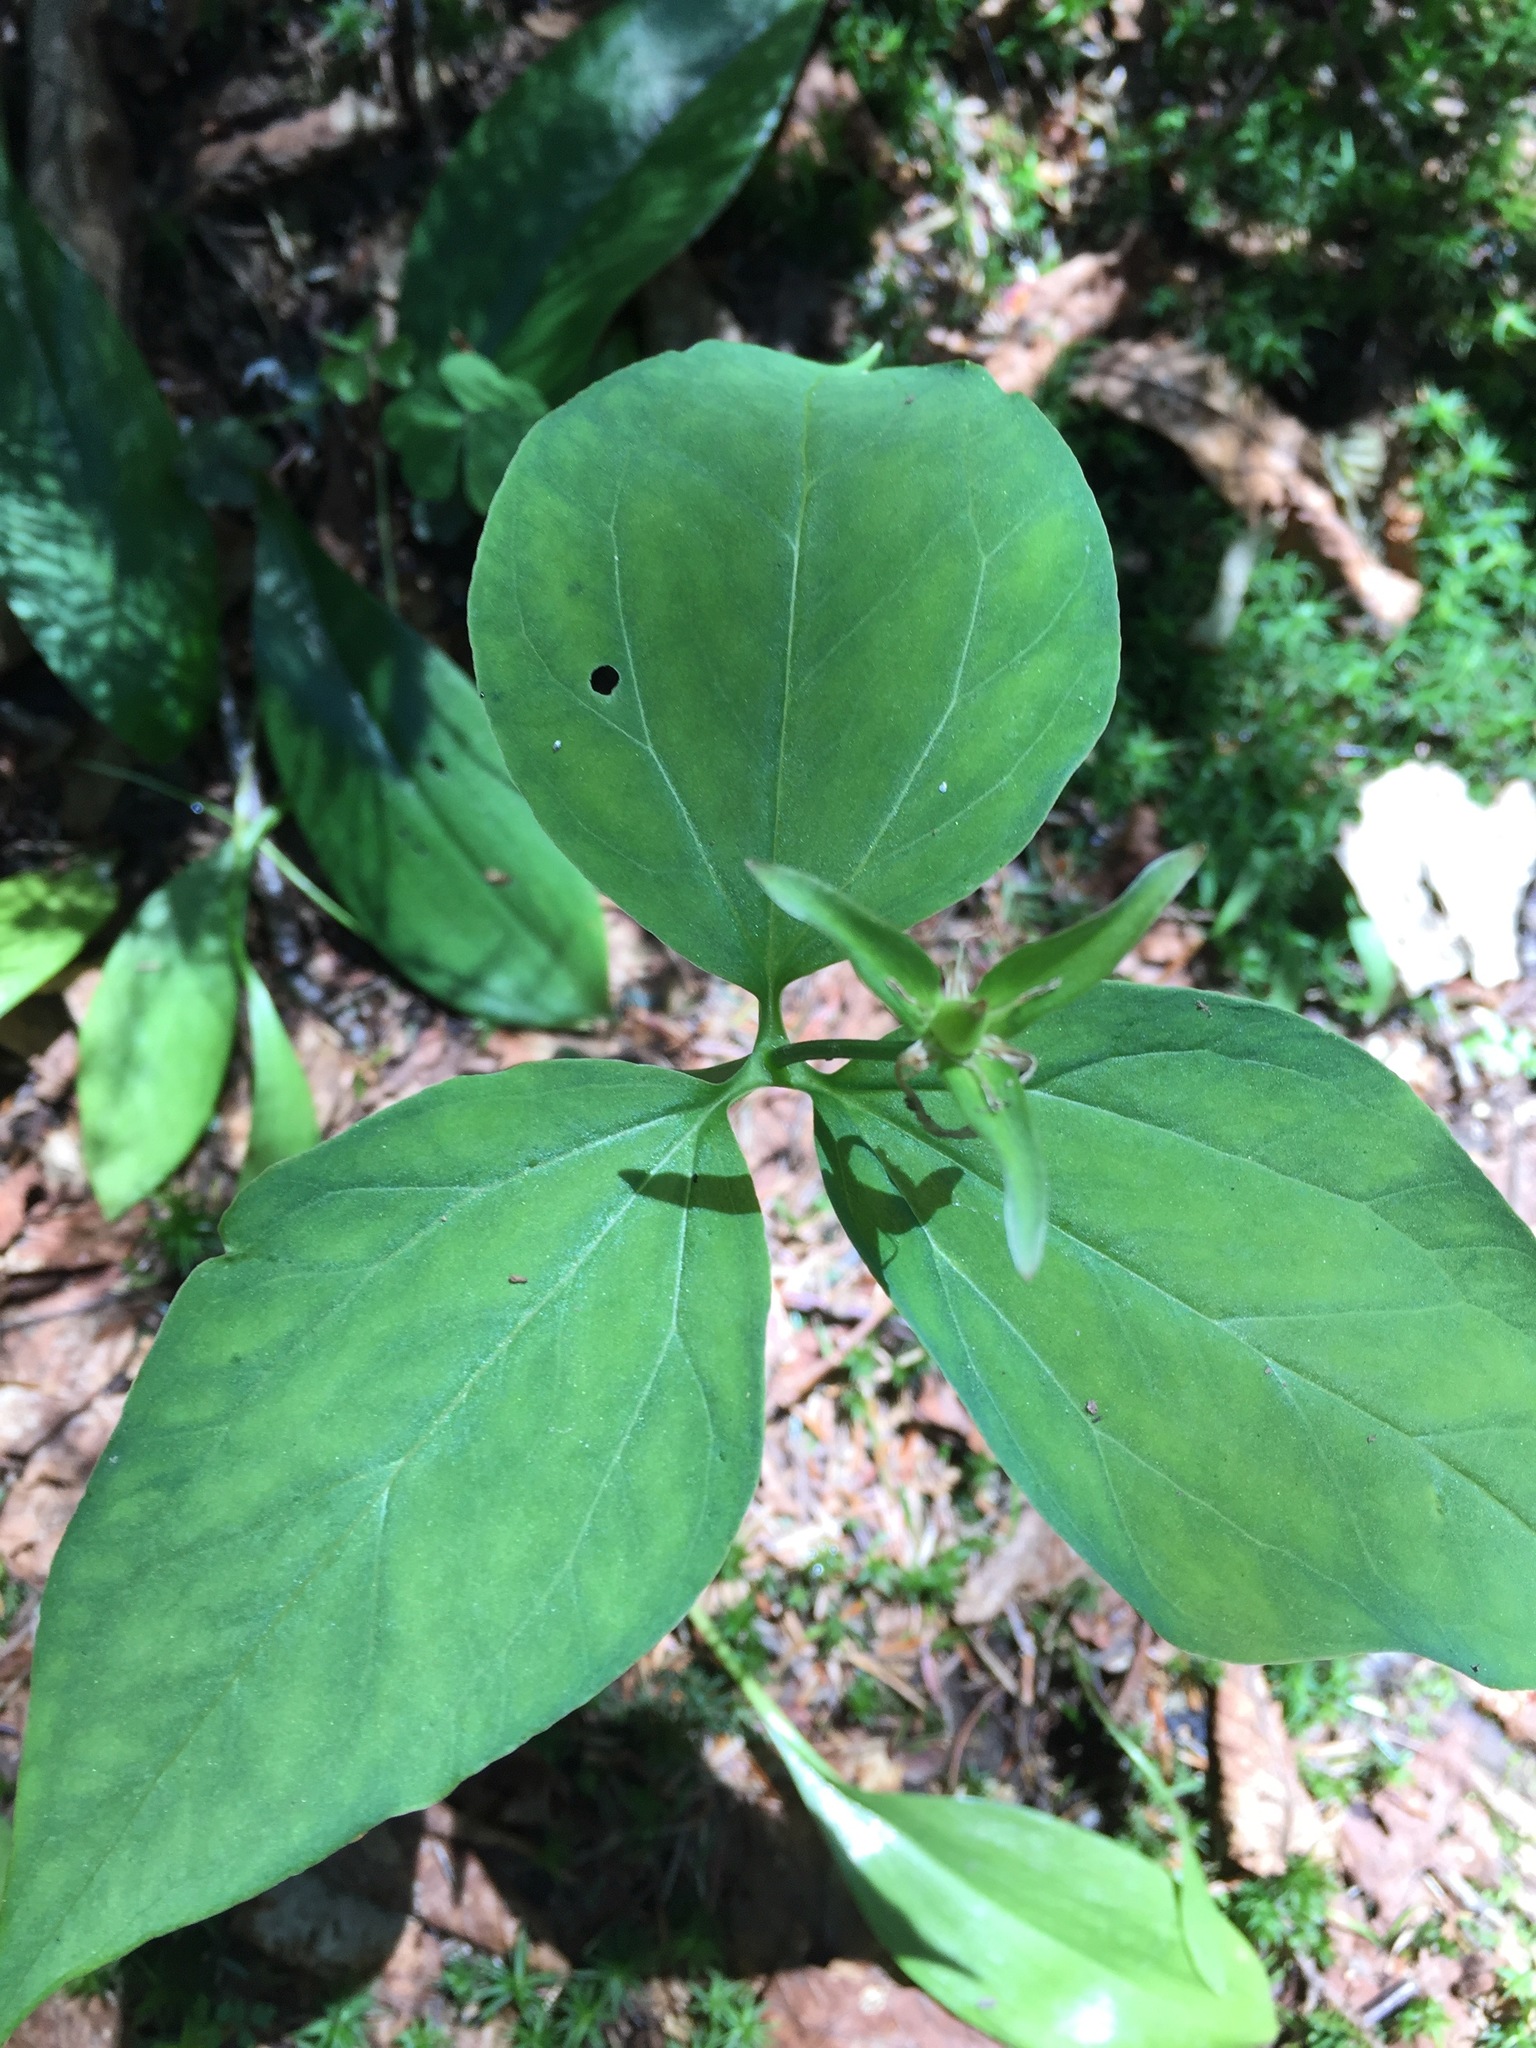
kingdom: Plantae
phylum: Tracheophyta
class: Liliopsida
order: Liliales
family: Melanthiaceae
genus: Trillium
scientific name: Trillium undulatum
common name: Paint trillium
